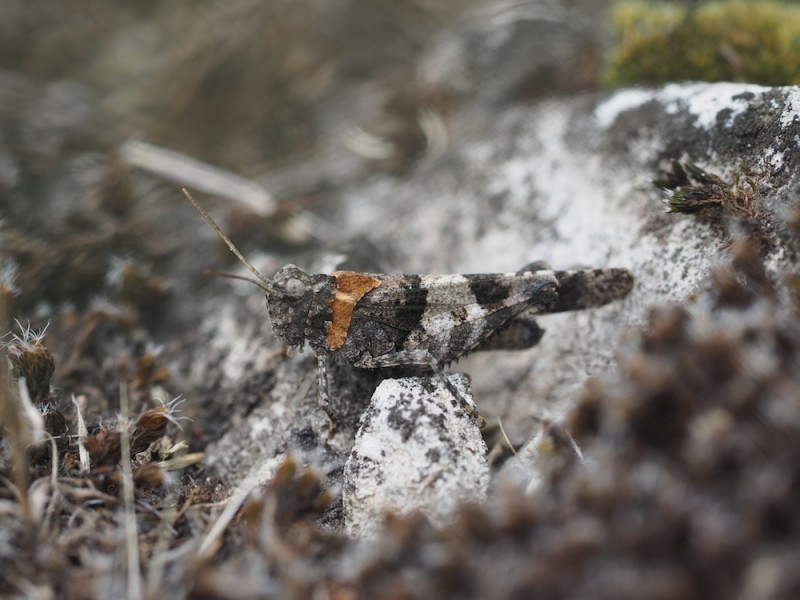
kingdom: Animalia
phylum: Arthropoda
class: Insecta
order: Orthoptera
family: Acrididae
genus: Oedipoda
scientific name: Oedipoda caerulescens
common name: Blue-winged grasshopper
